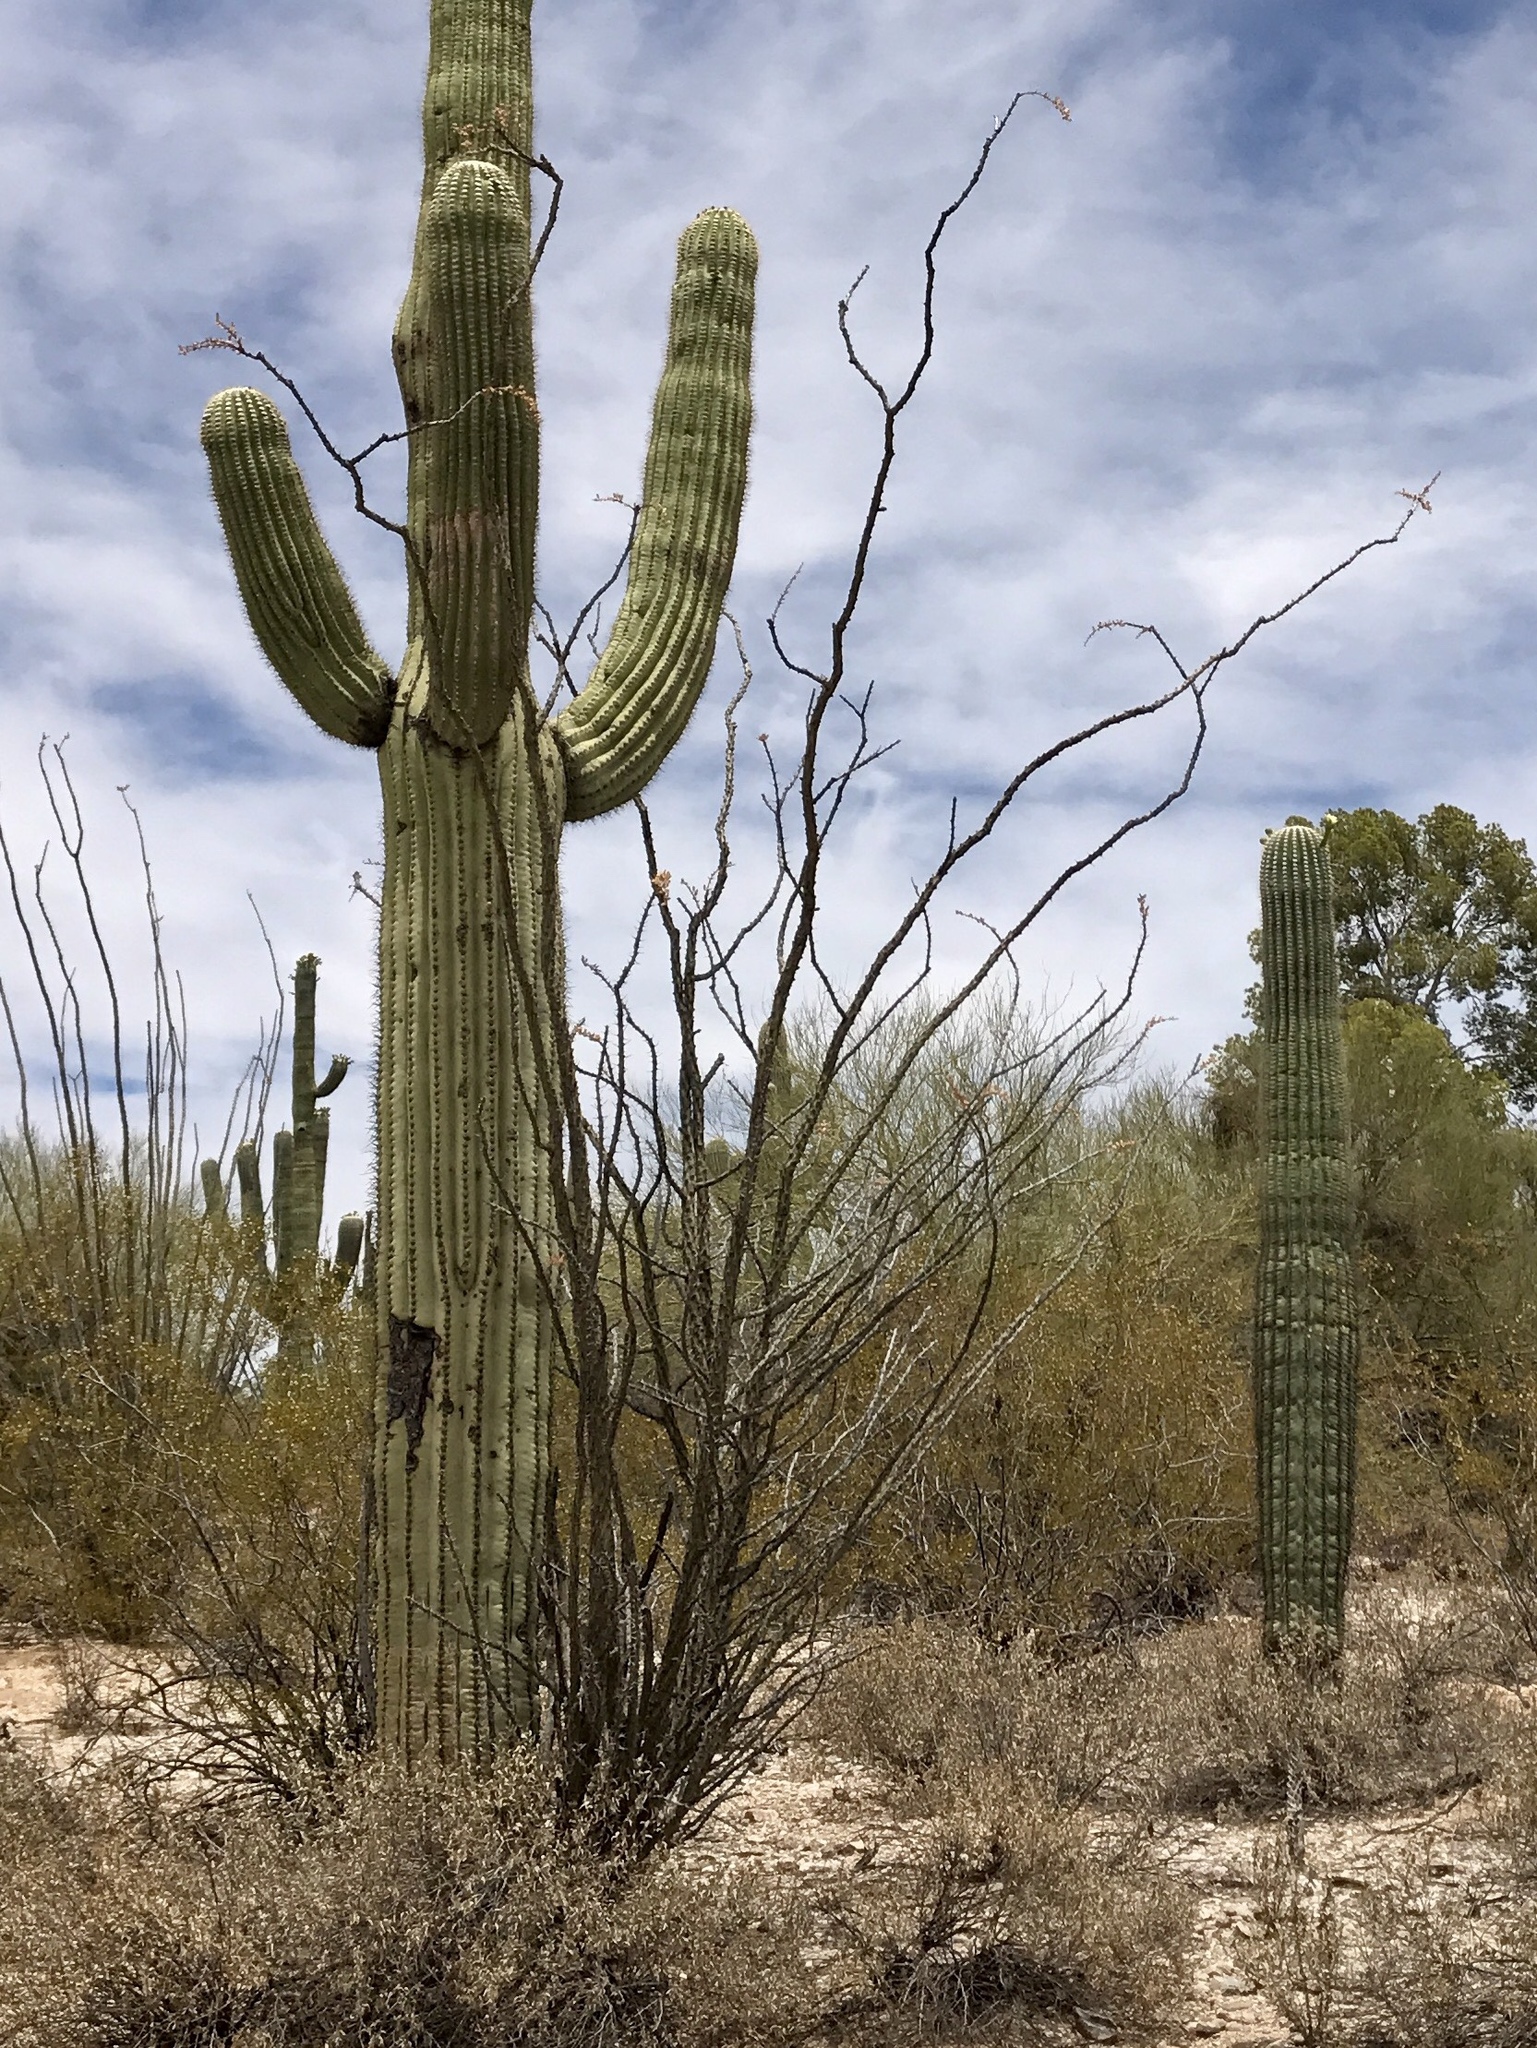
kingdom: Plantae
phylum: Tracheophyta
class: Magnoliopsida
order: Ericales
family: Fouquieriaceae
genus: Fouquieria
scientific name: Fouquieria splendens
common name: Vine-cactus
